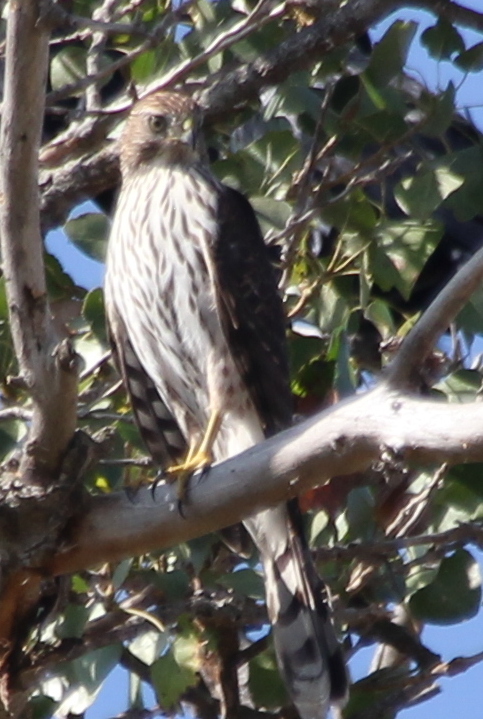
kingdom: Animalia
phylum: Chordata
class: Aves
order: Accipitriformes
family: Accipitridae
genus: Accipiter
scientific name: Accipiter cooperii
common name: Cooper's hawk
